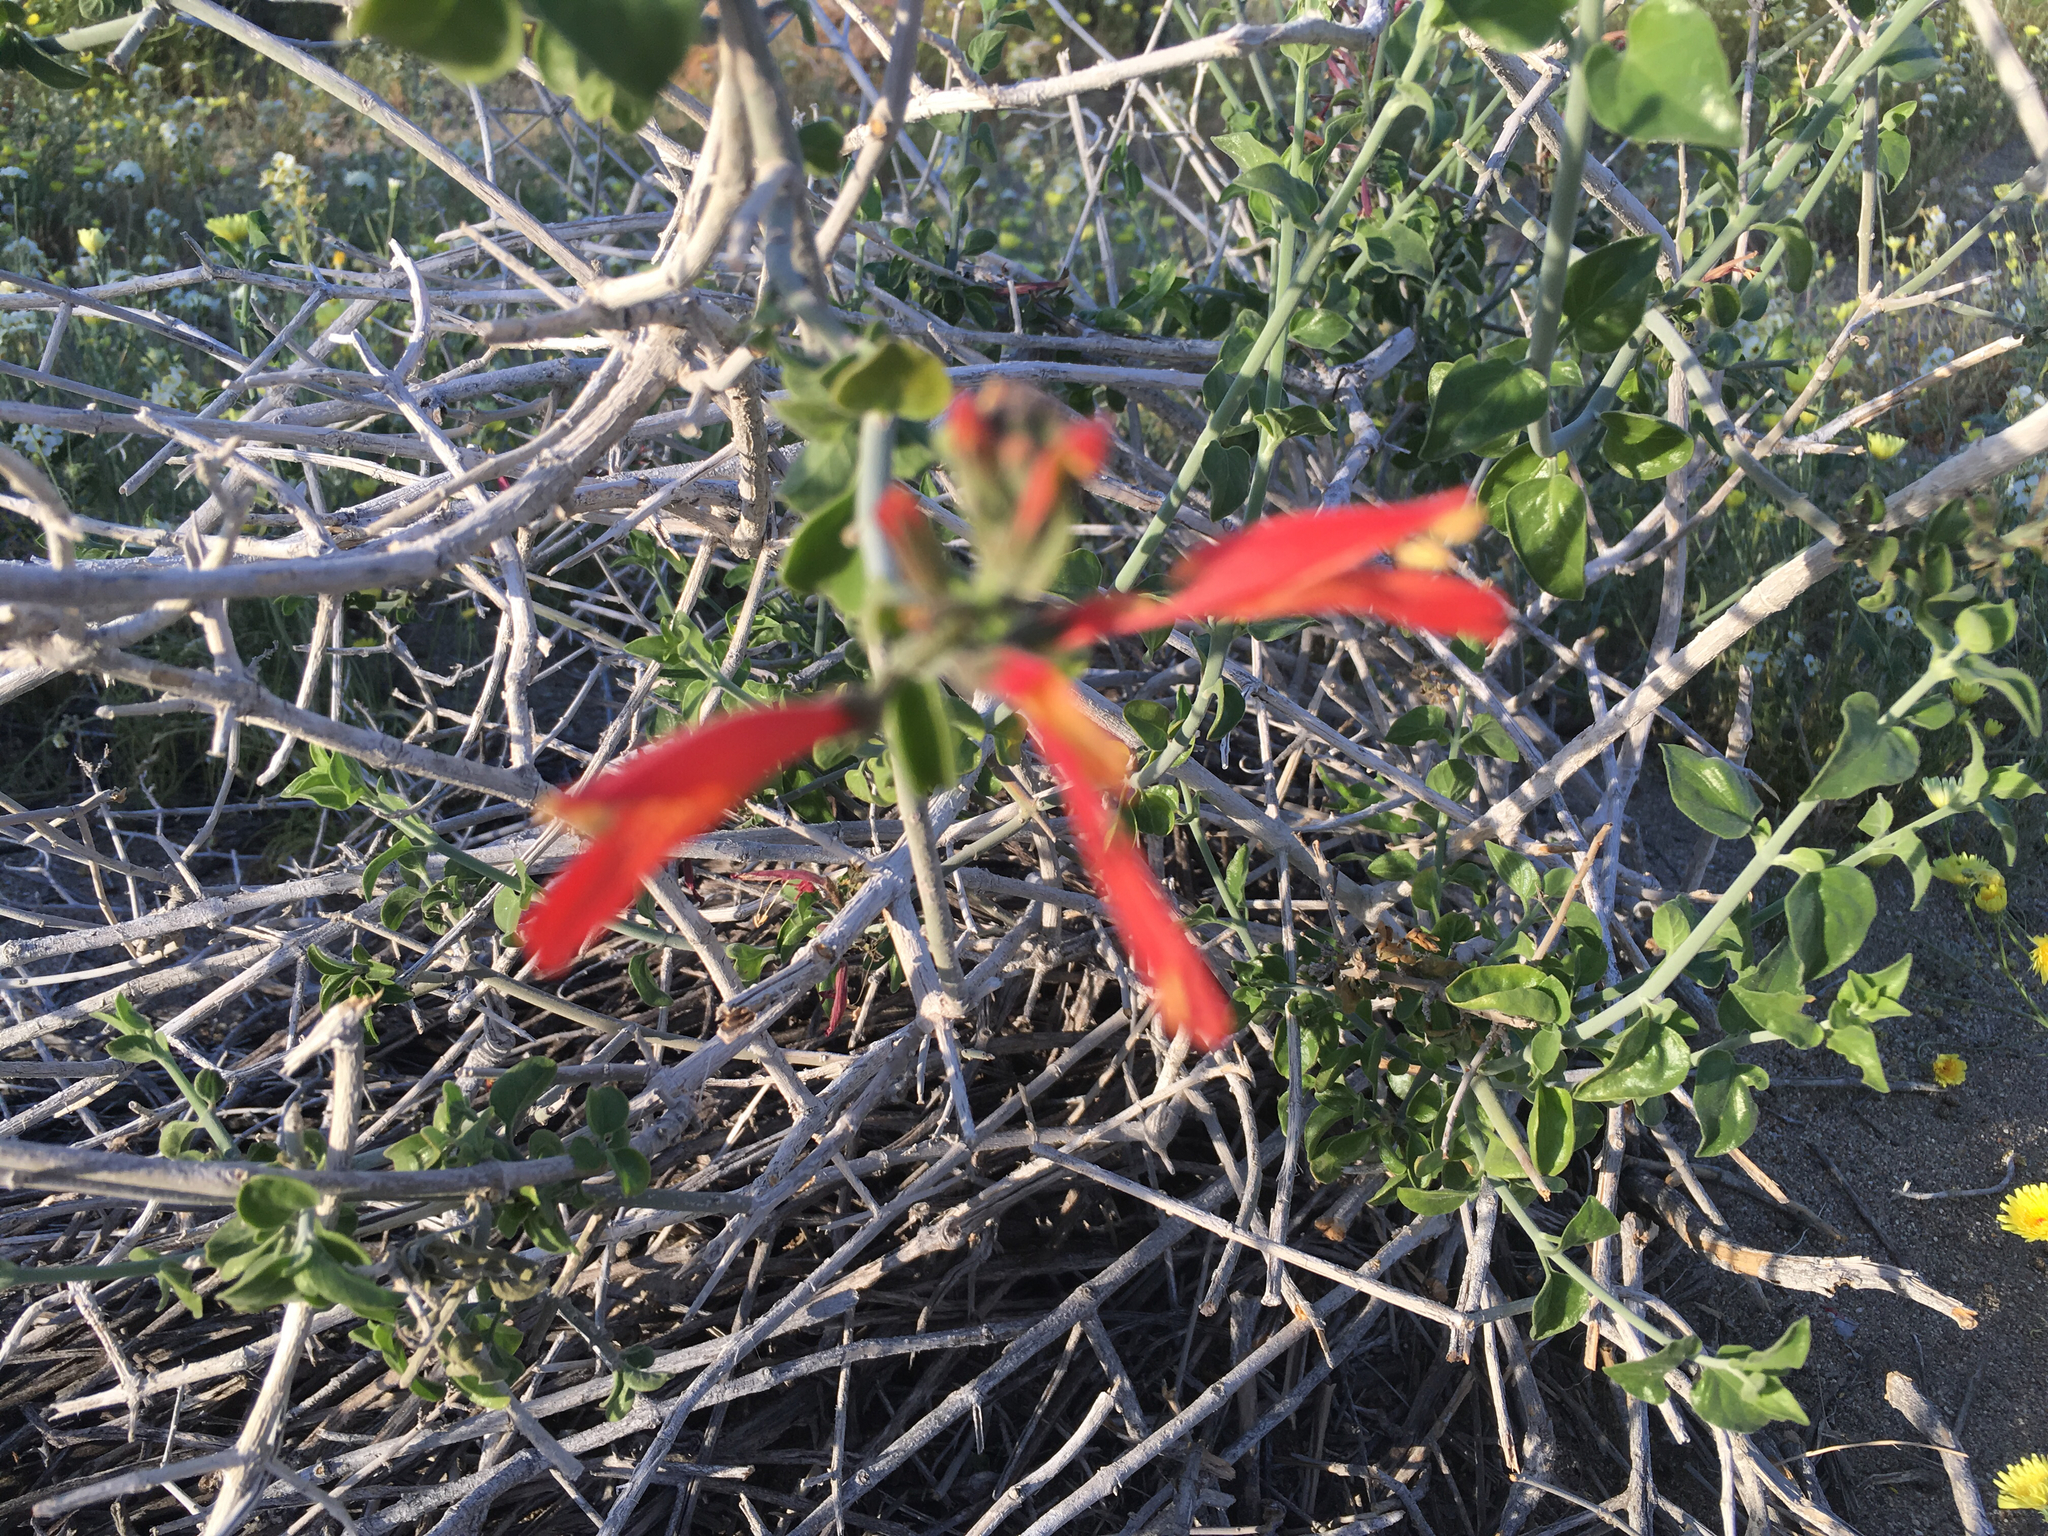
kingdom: Plantae
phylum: Tracheophyta
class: Magnoliopsida
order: Lamiales
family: Acanthaceae
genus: Justicia
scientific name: Justicia californica
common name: Chuparosa-honeysuckle
